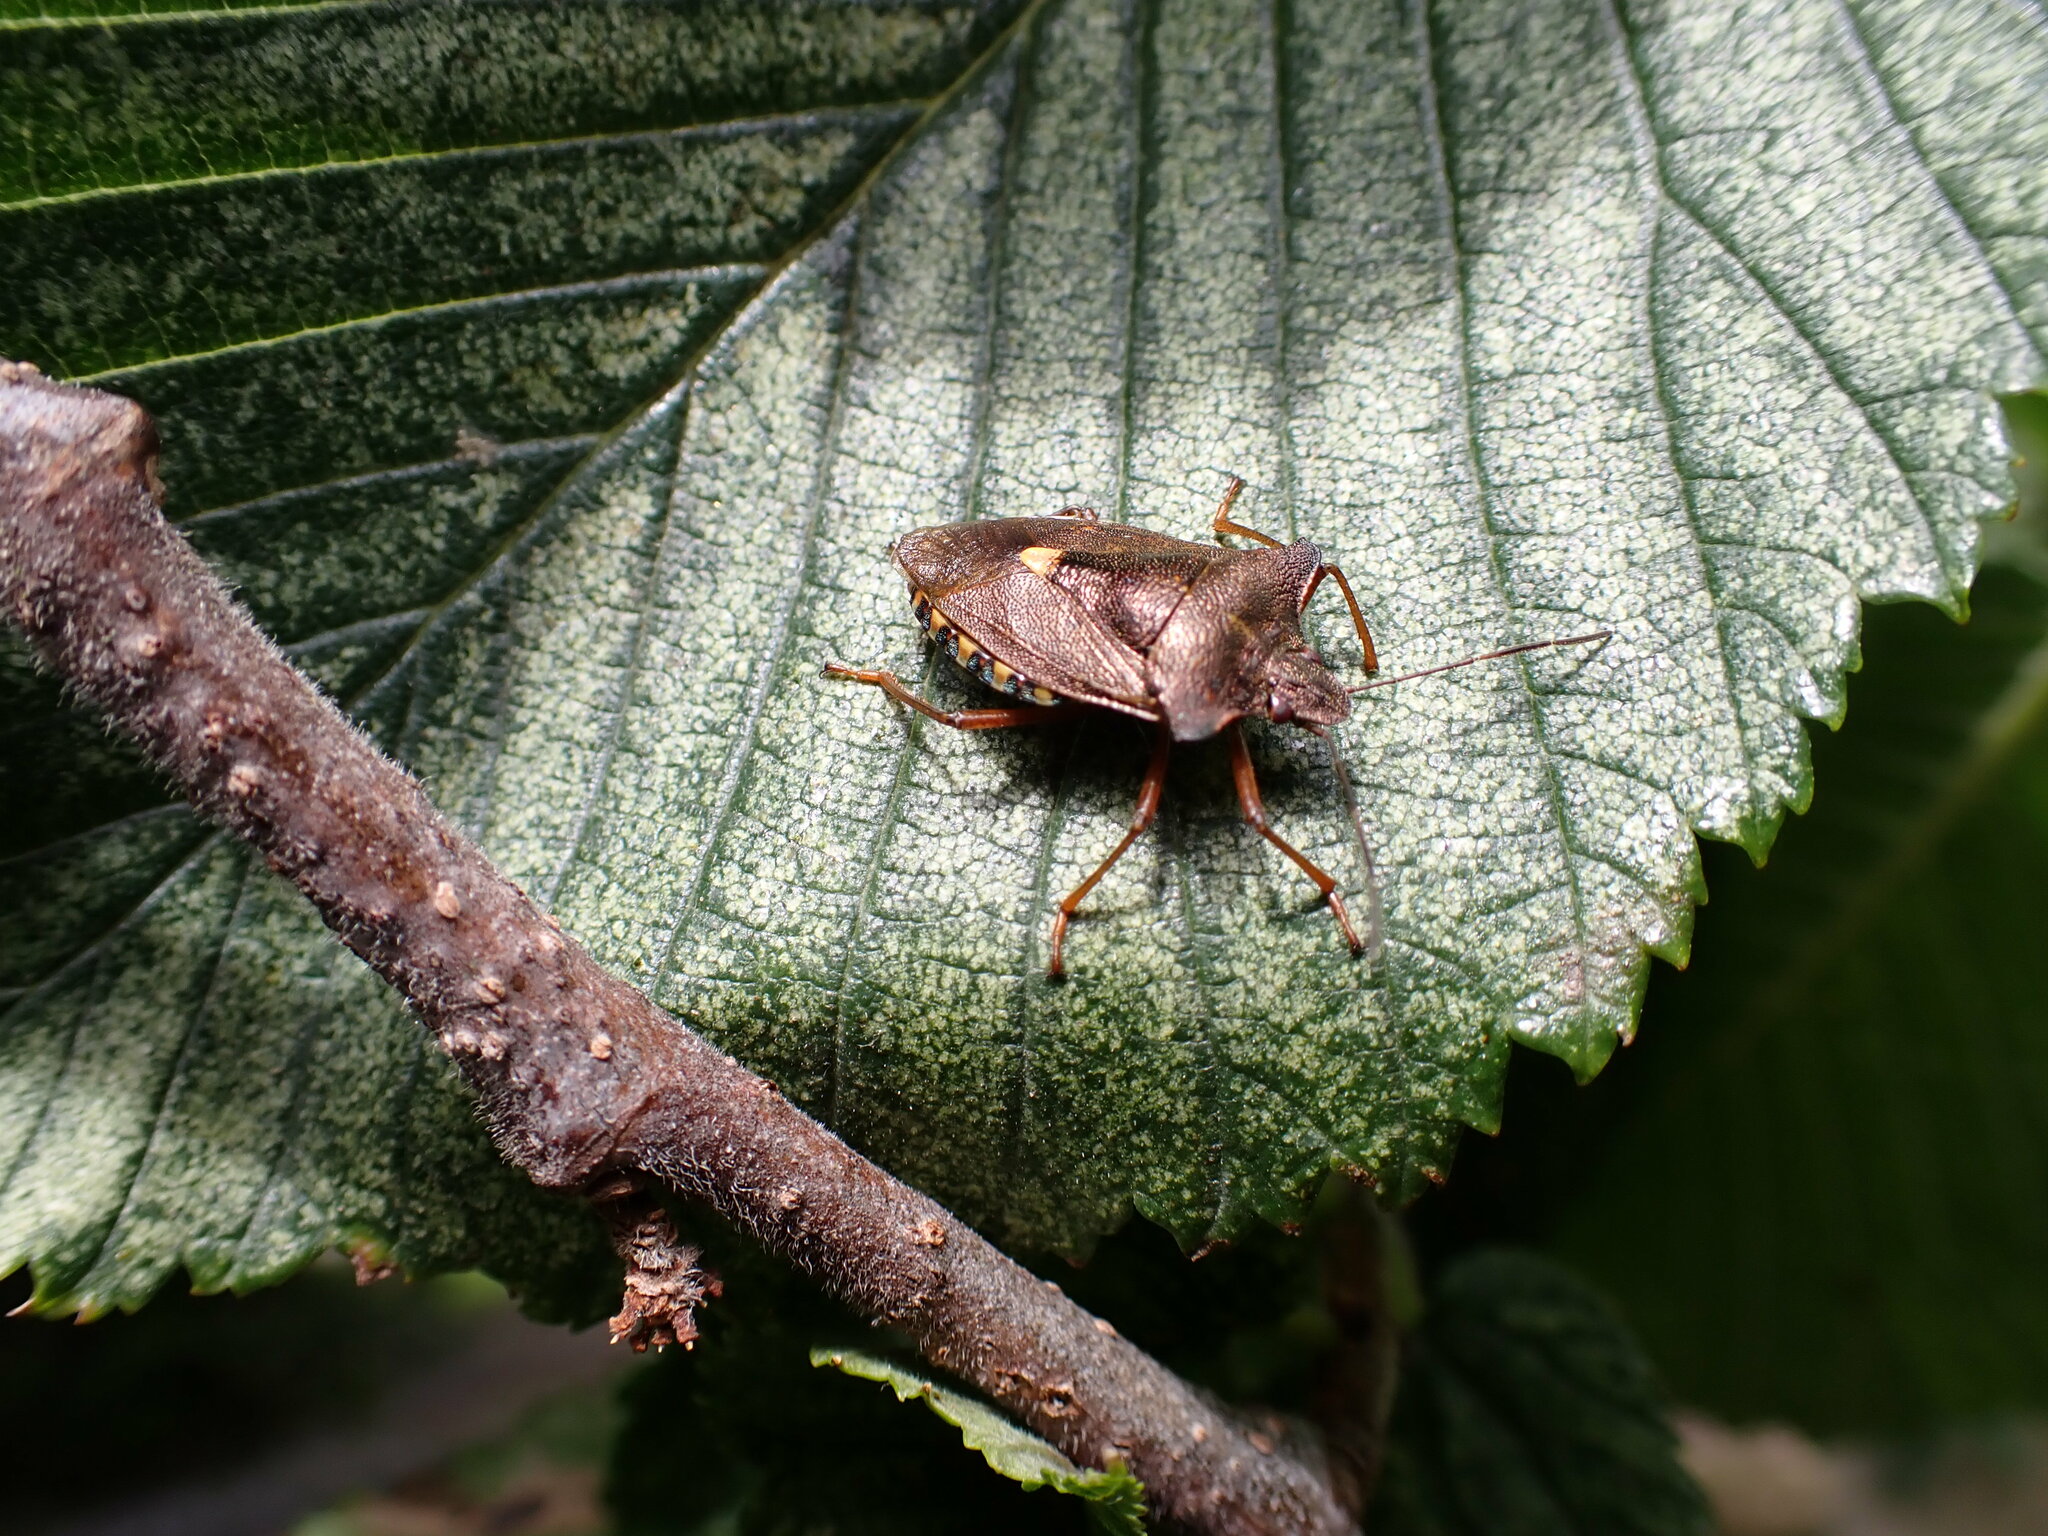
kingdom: Animalia
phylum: Arthropoda
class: Insecta
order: Hemiptera
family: Pentatomidae
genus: Pentatoma
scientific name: Pentatoma rufipes
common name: Forest bug
